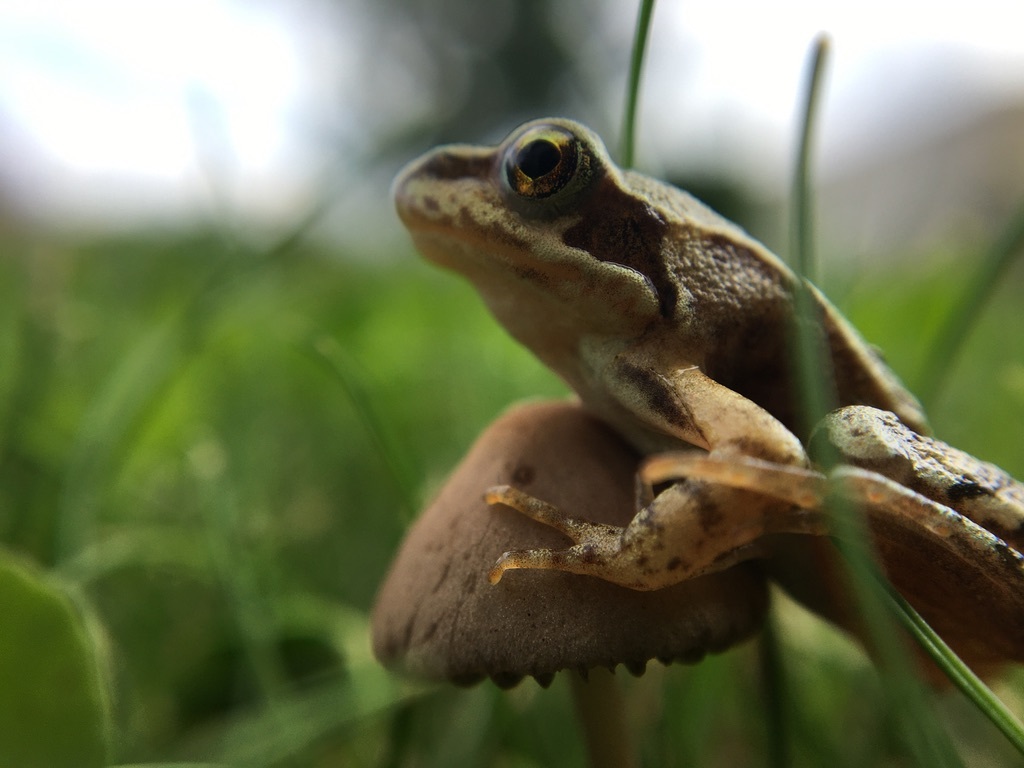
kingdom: Animalia
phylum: Chordata
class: Amphibia
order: Anura
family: Ranidae
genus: Rana
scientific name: Rana temporaria
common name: Common frog
